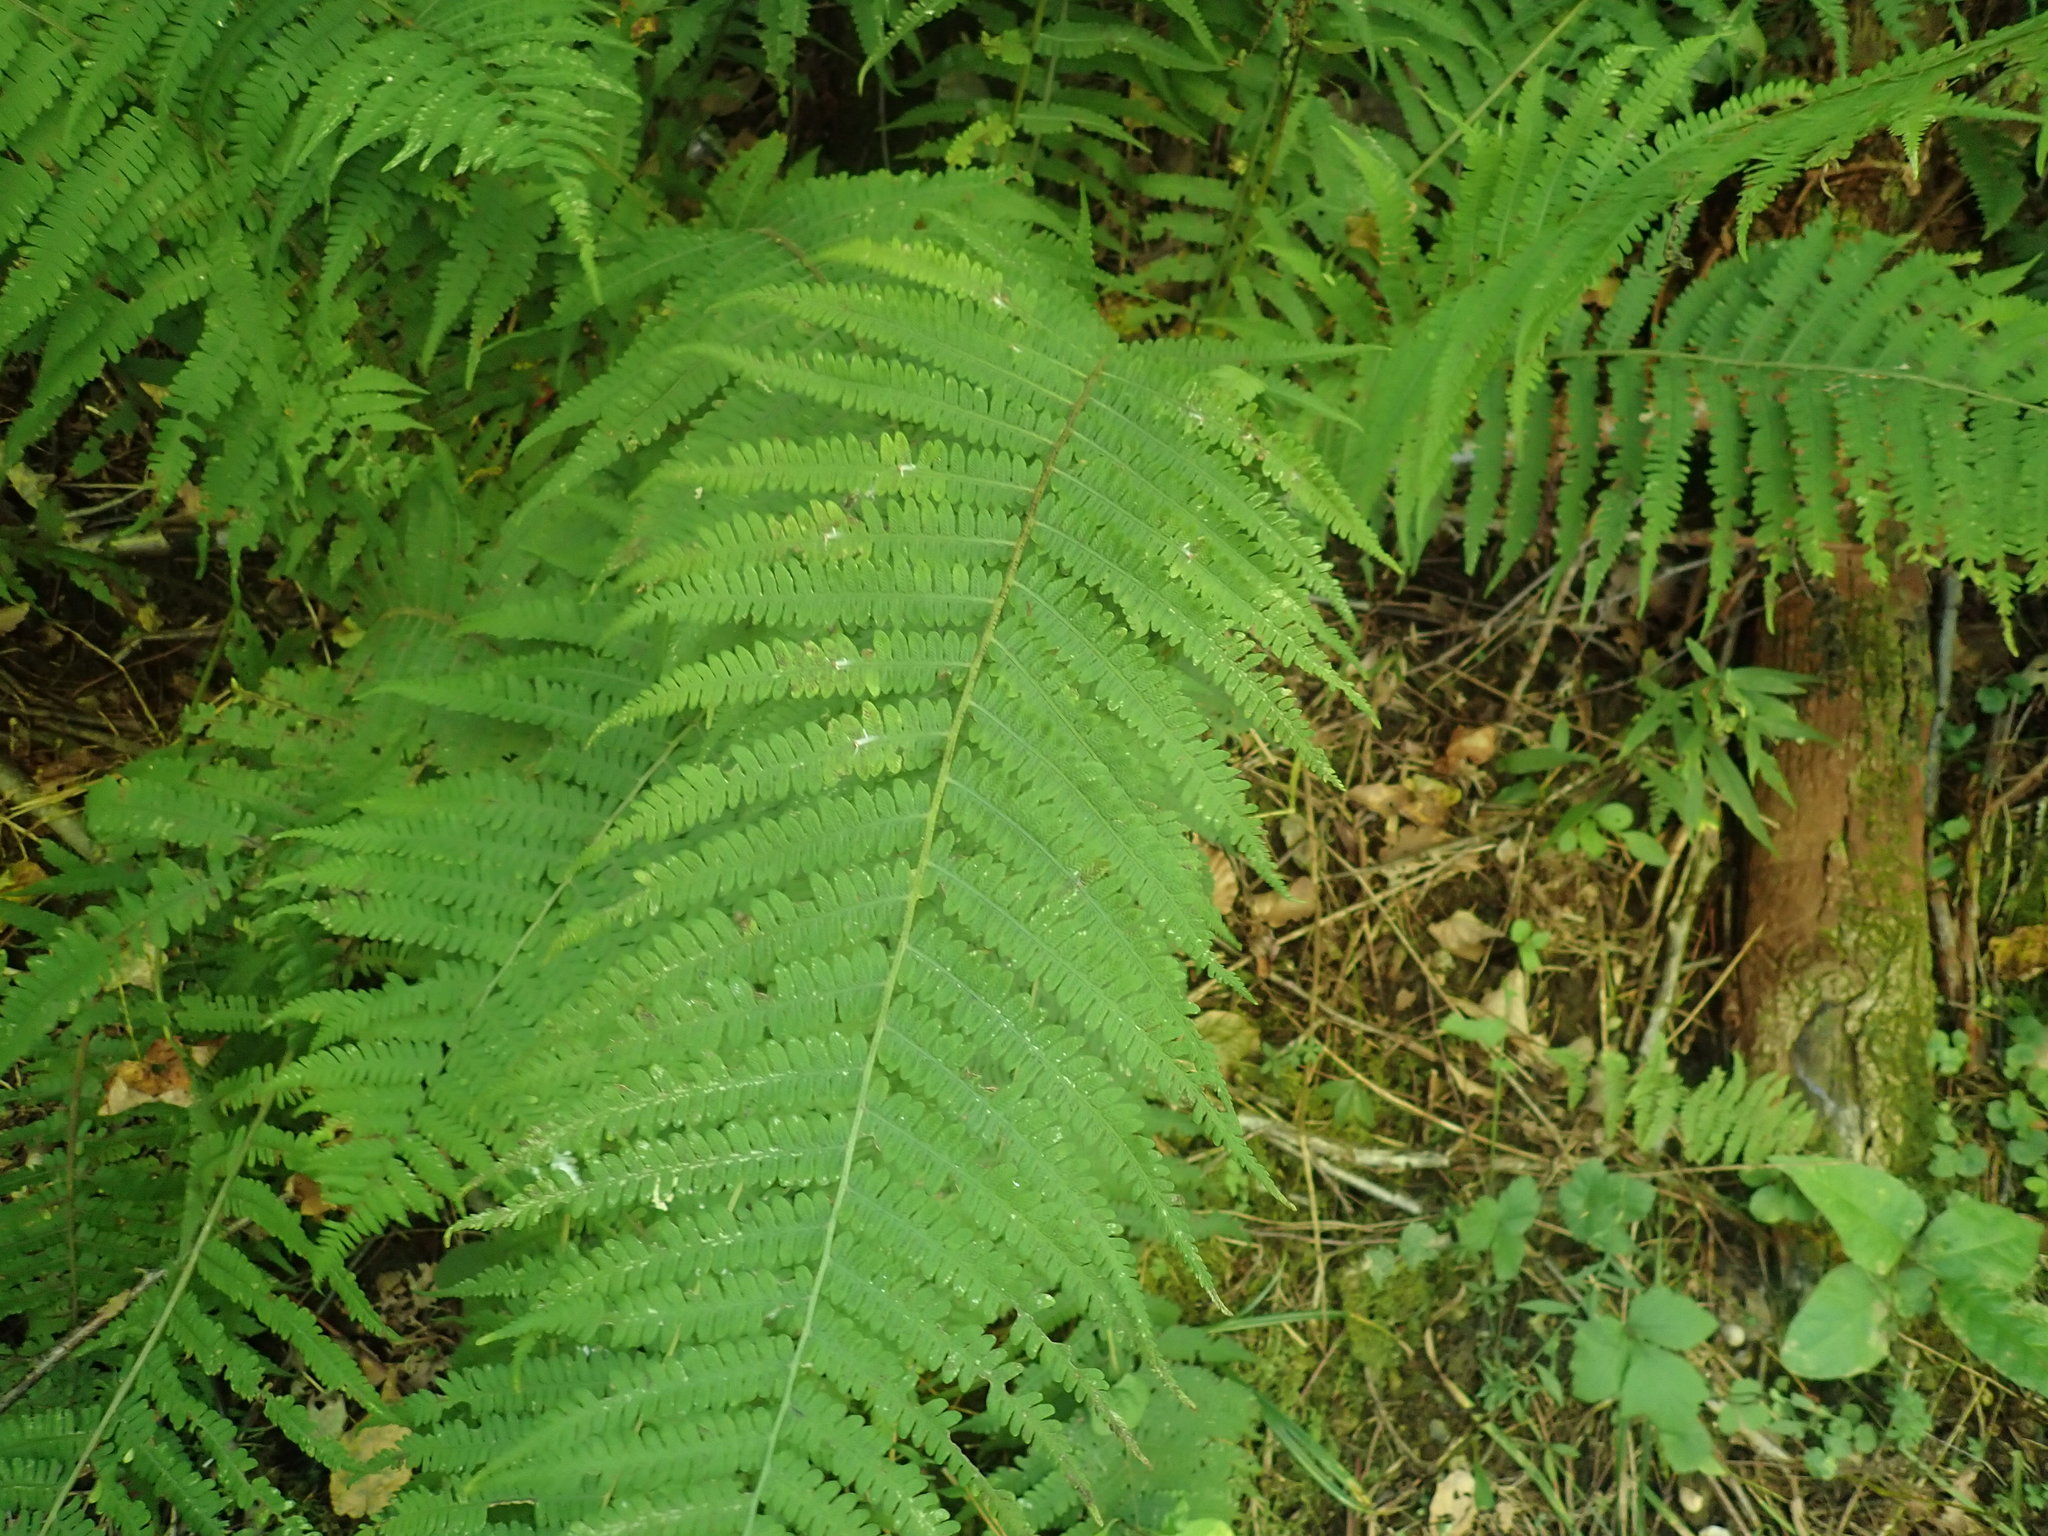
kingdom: Plantae
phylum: Tracheophyta
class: Polypodiopsida
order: Polypodiales
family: Athyriaceae
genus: Deparia
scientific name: Deparia acrostichoides
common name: Silver false spleenwort
